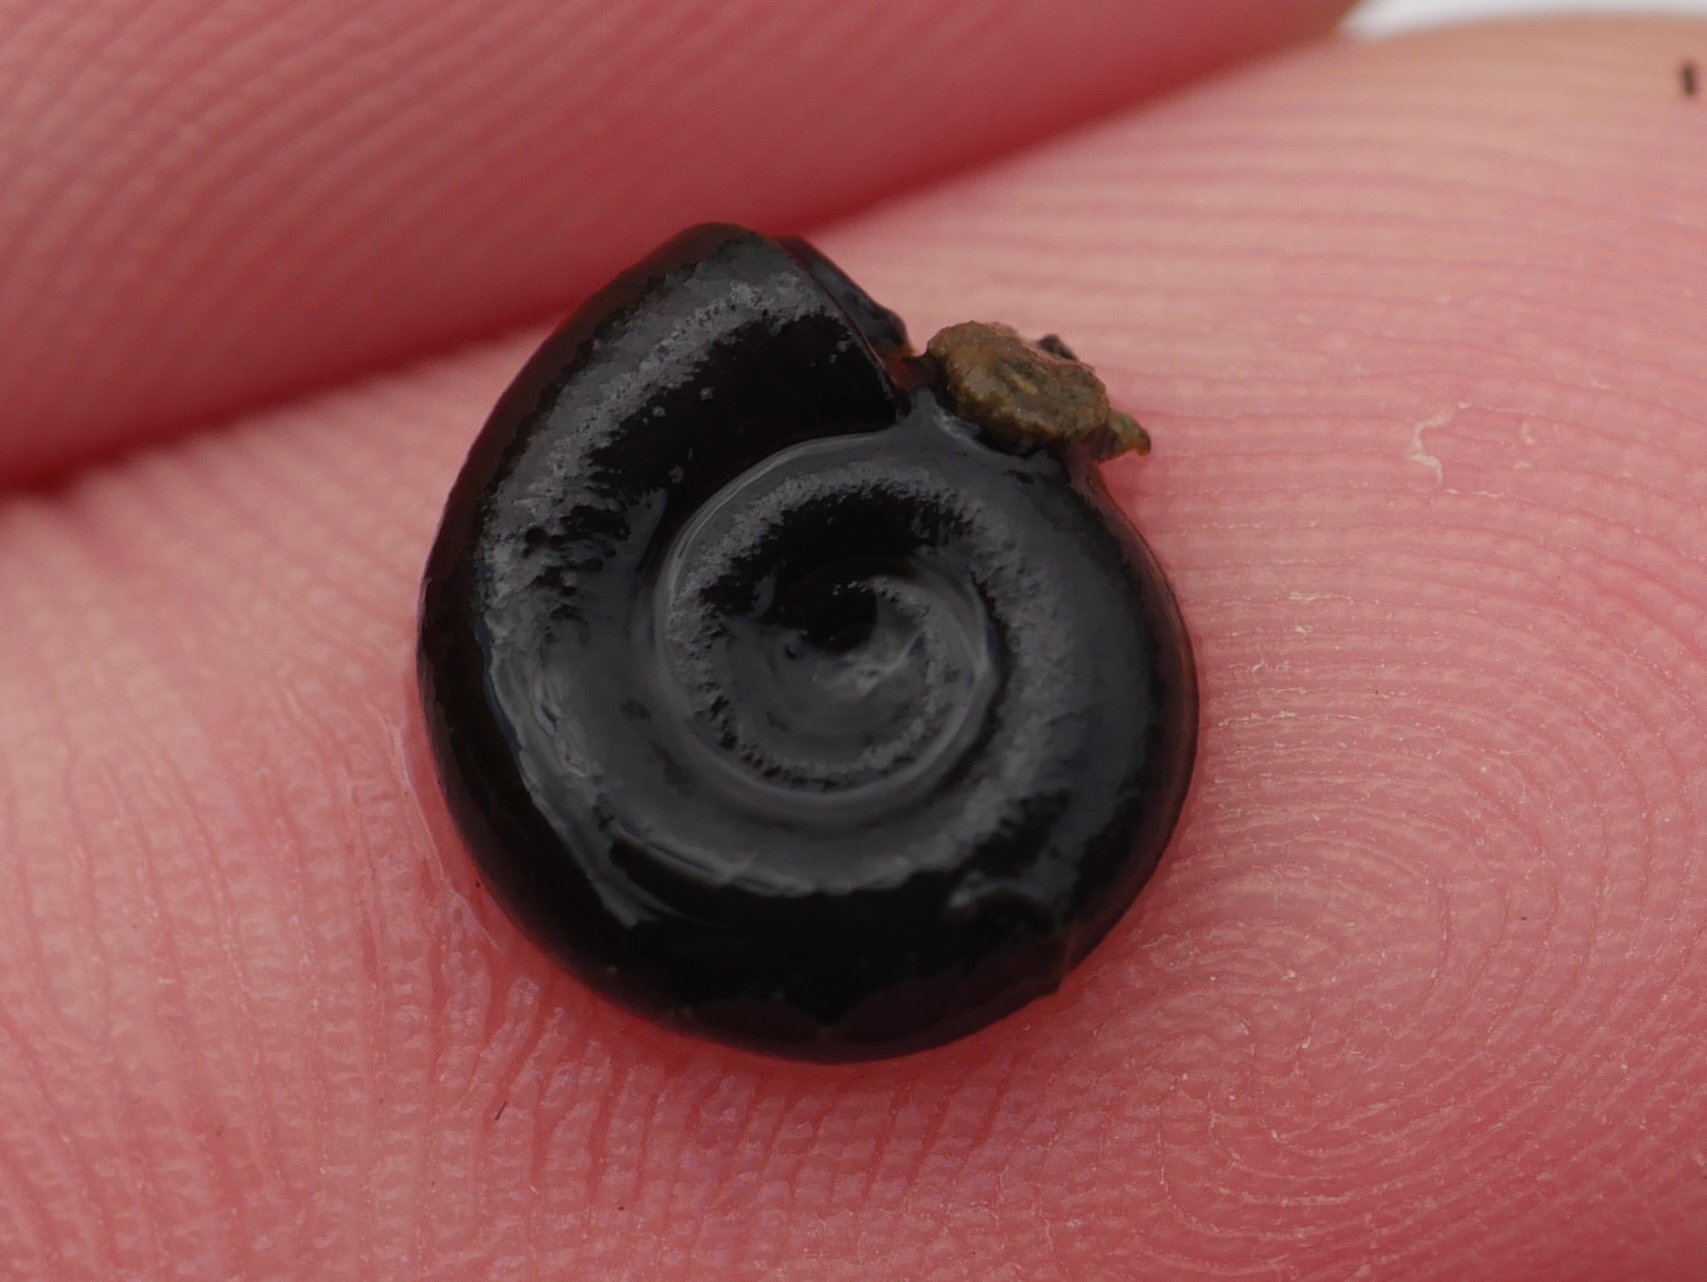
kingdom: Animalia
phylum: Mollusca
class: Gastropoda
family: Planorbidae
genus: Planorbis
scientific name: Planorbis planorbis
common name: Margined ramshorn
